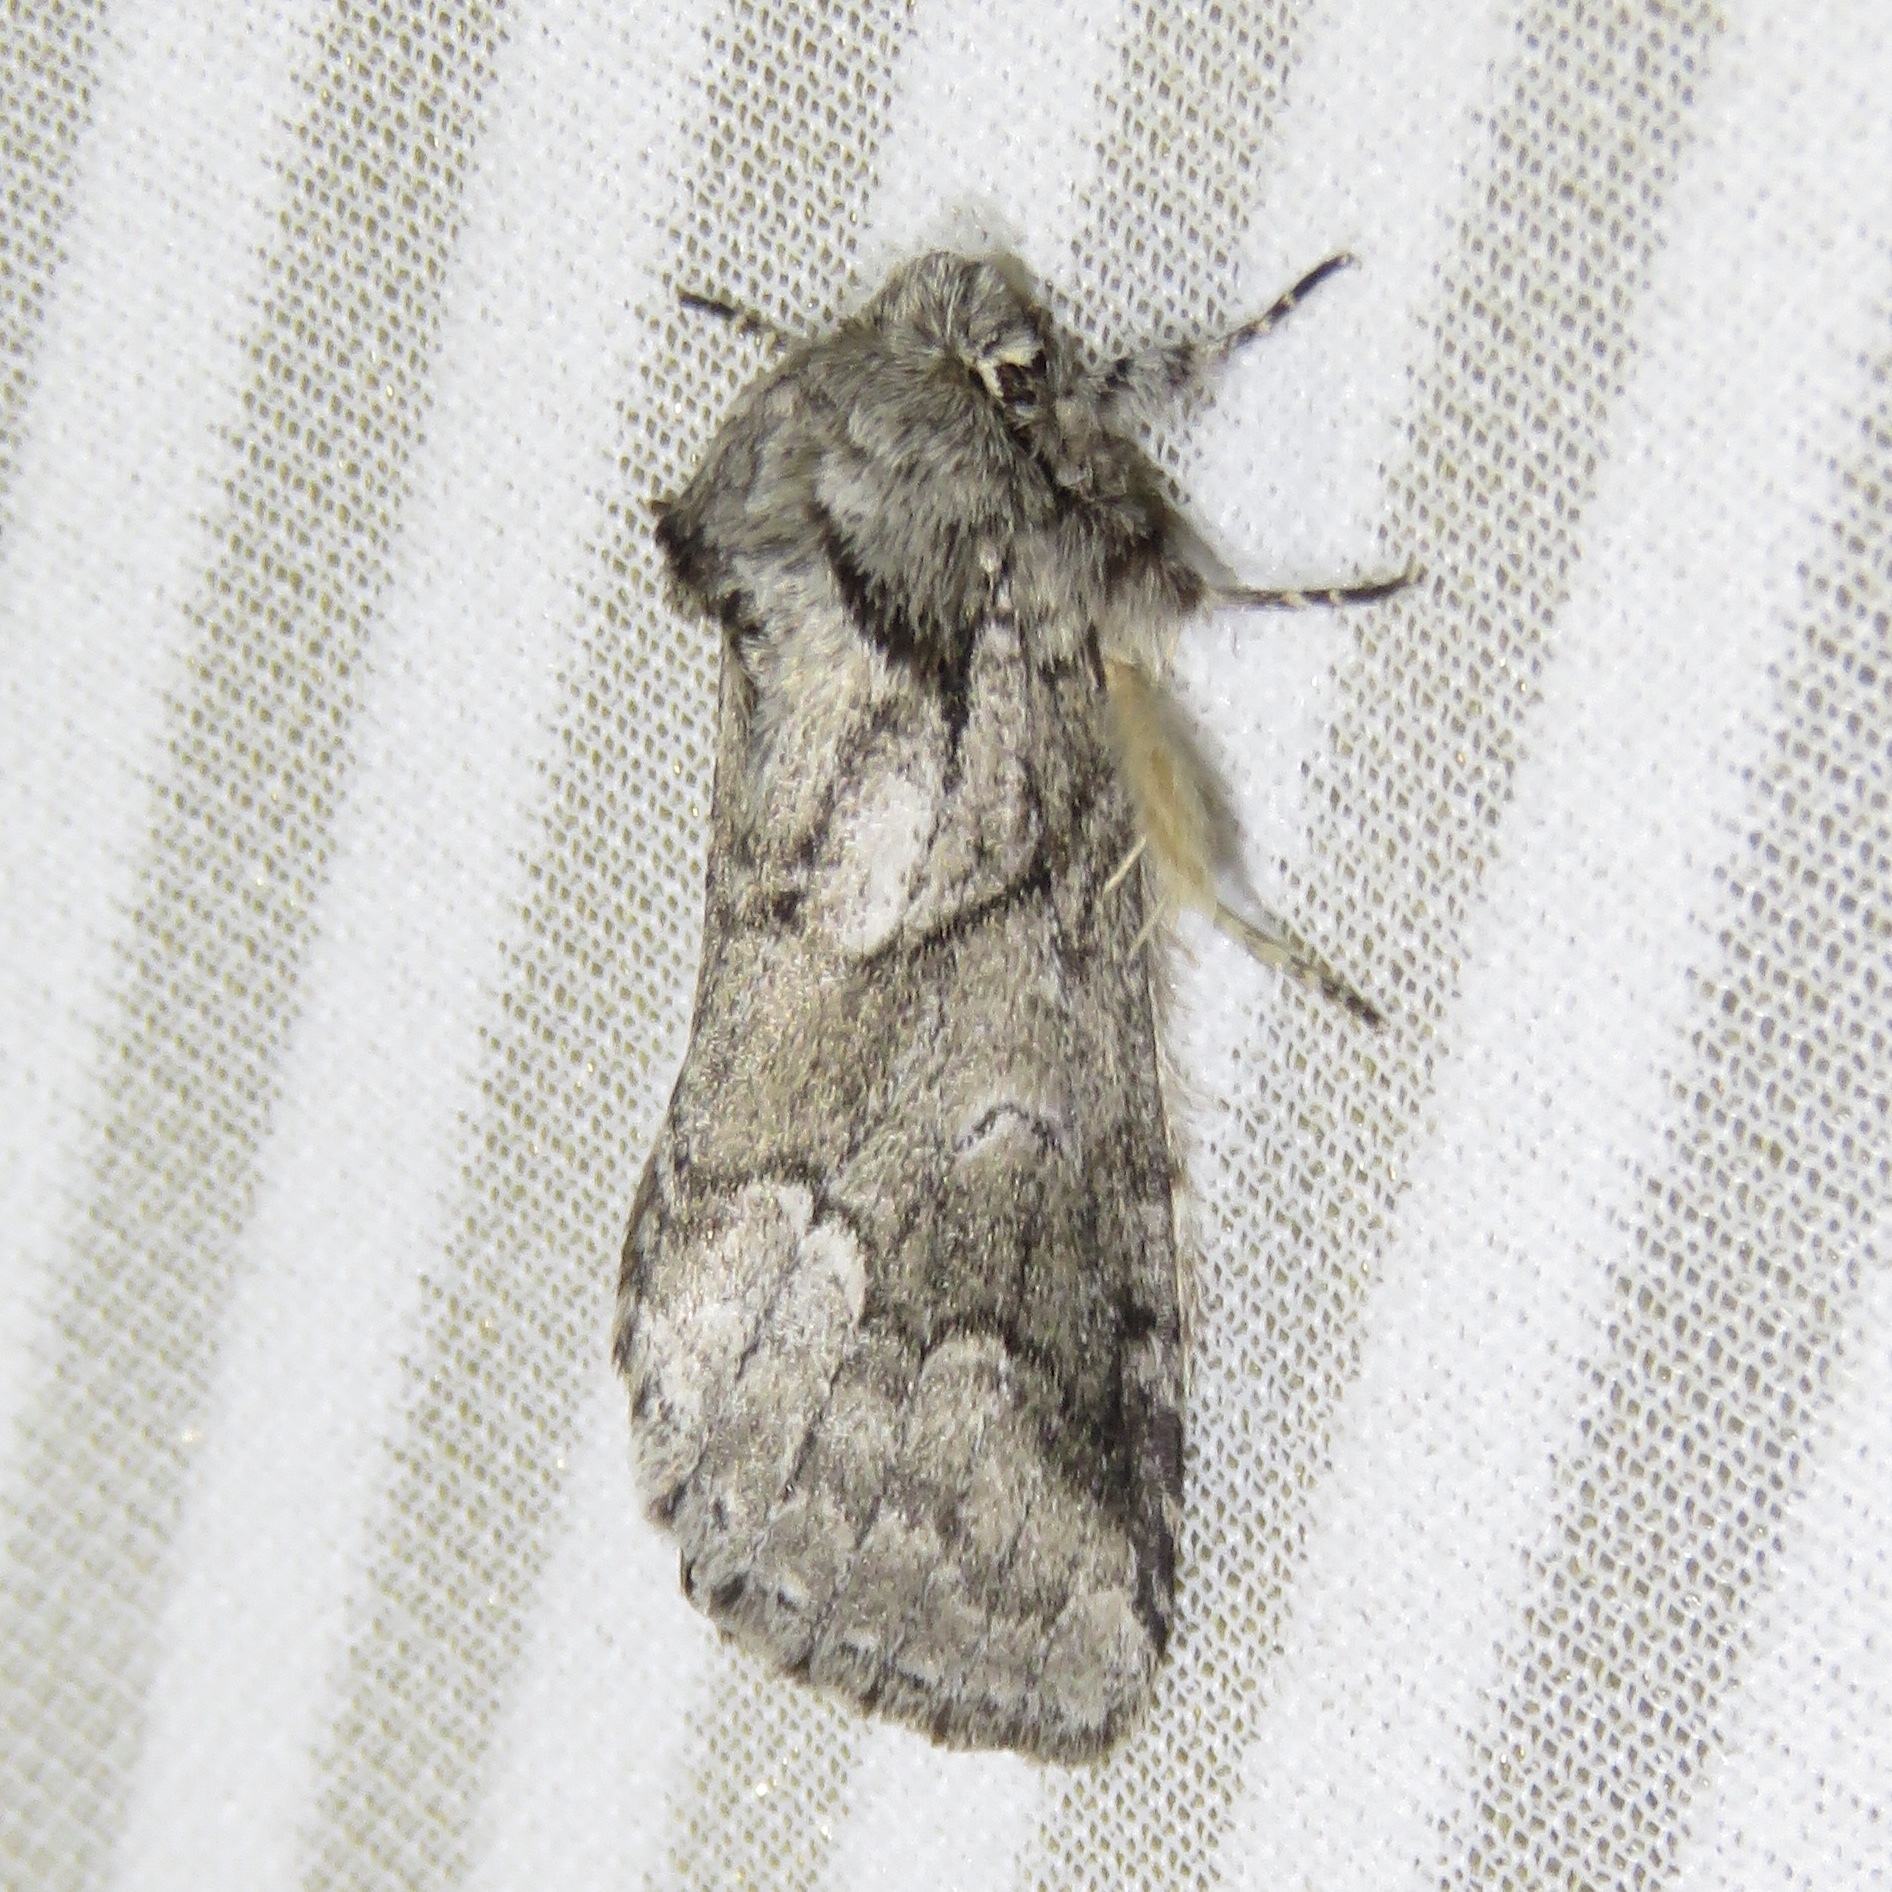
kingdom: Animalia
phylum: Arthropoda
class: Insecta
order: Lepidoptera
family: Notodontidae
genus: Lochmaeus
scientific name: Lochmaeus bilineata
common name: Double-lined prominent
